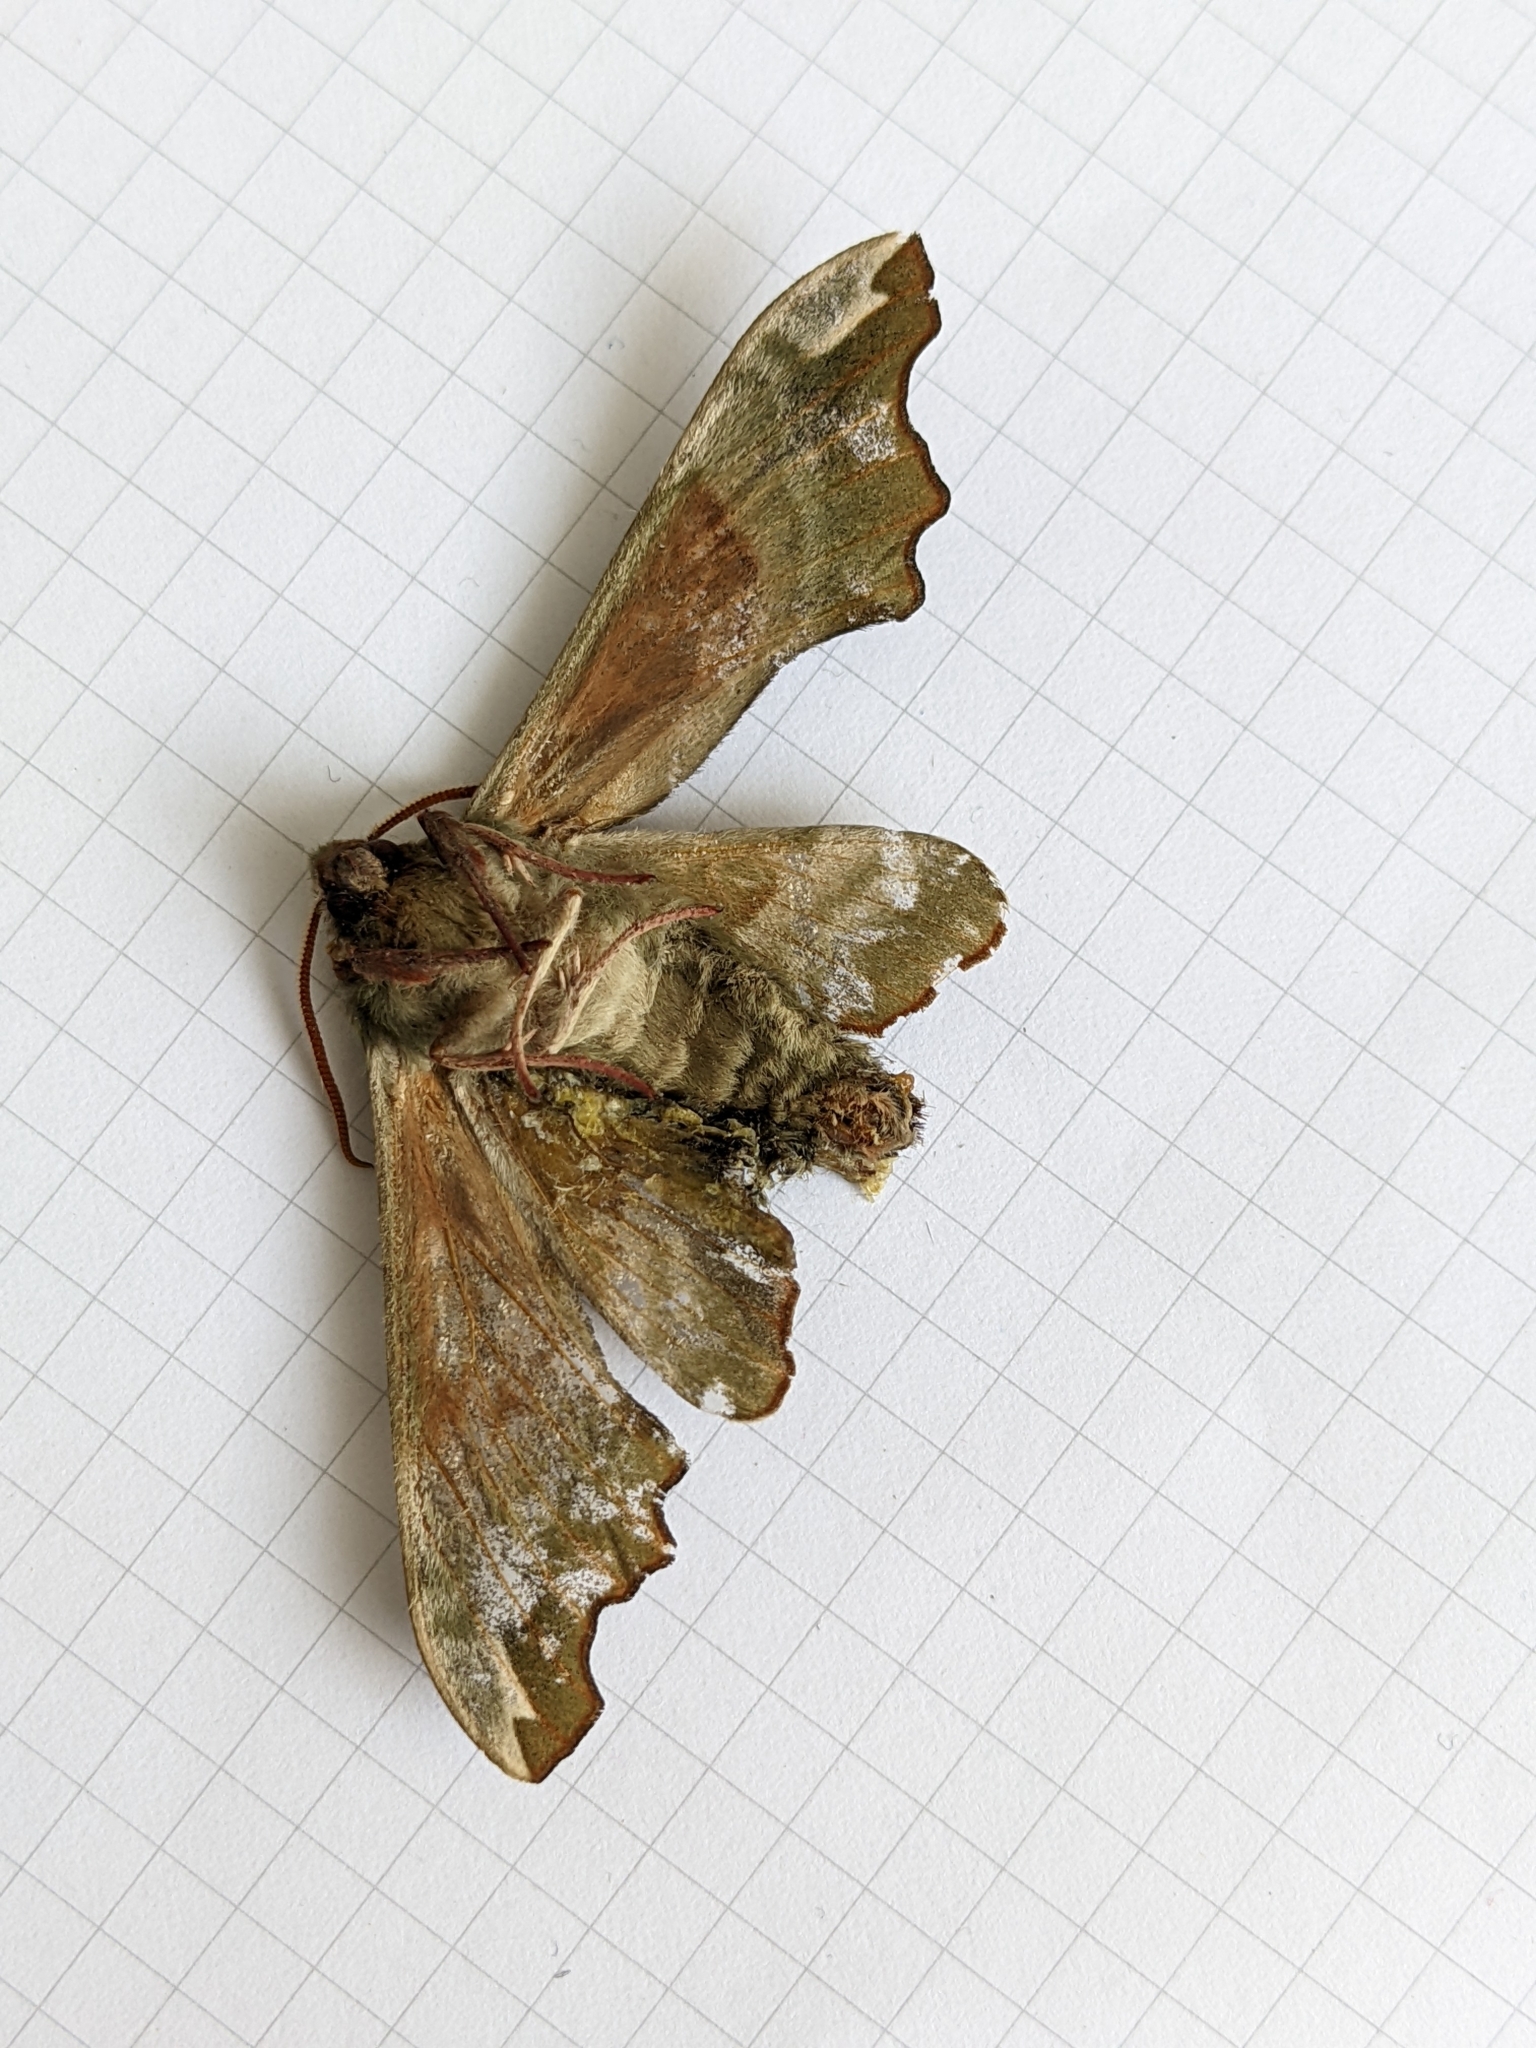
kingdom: Animalia
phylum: Arthropoda
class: Insecta
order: Lepidoptera
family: Sphingidae
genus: Mimas
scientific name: Mimas tiliae
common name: Lime hawk-moth
